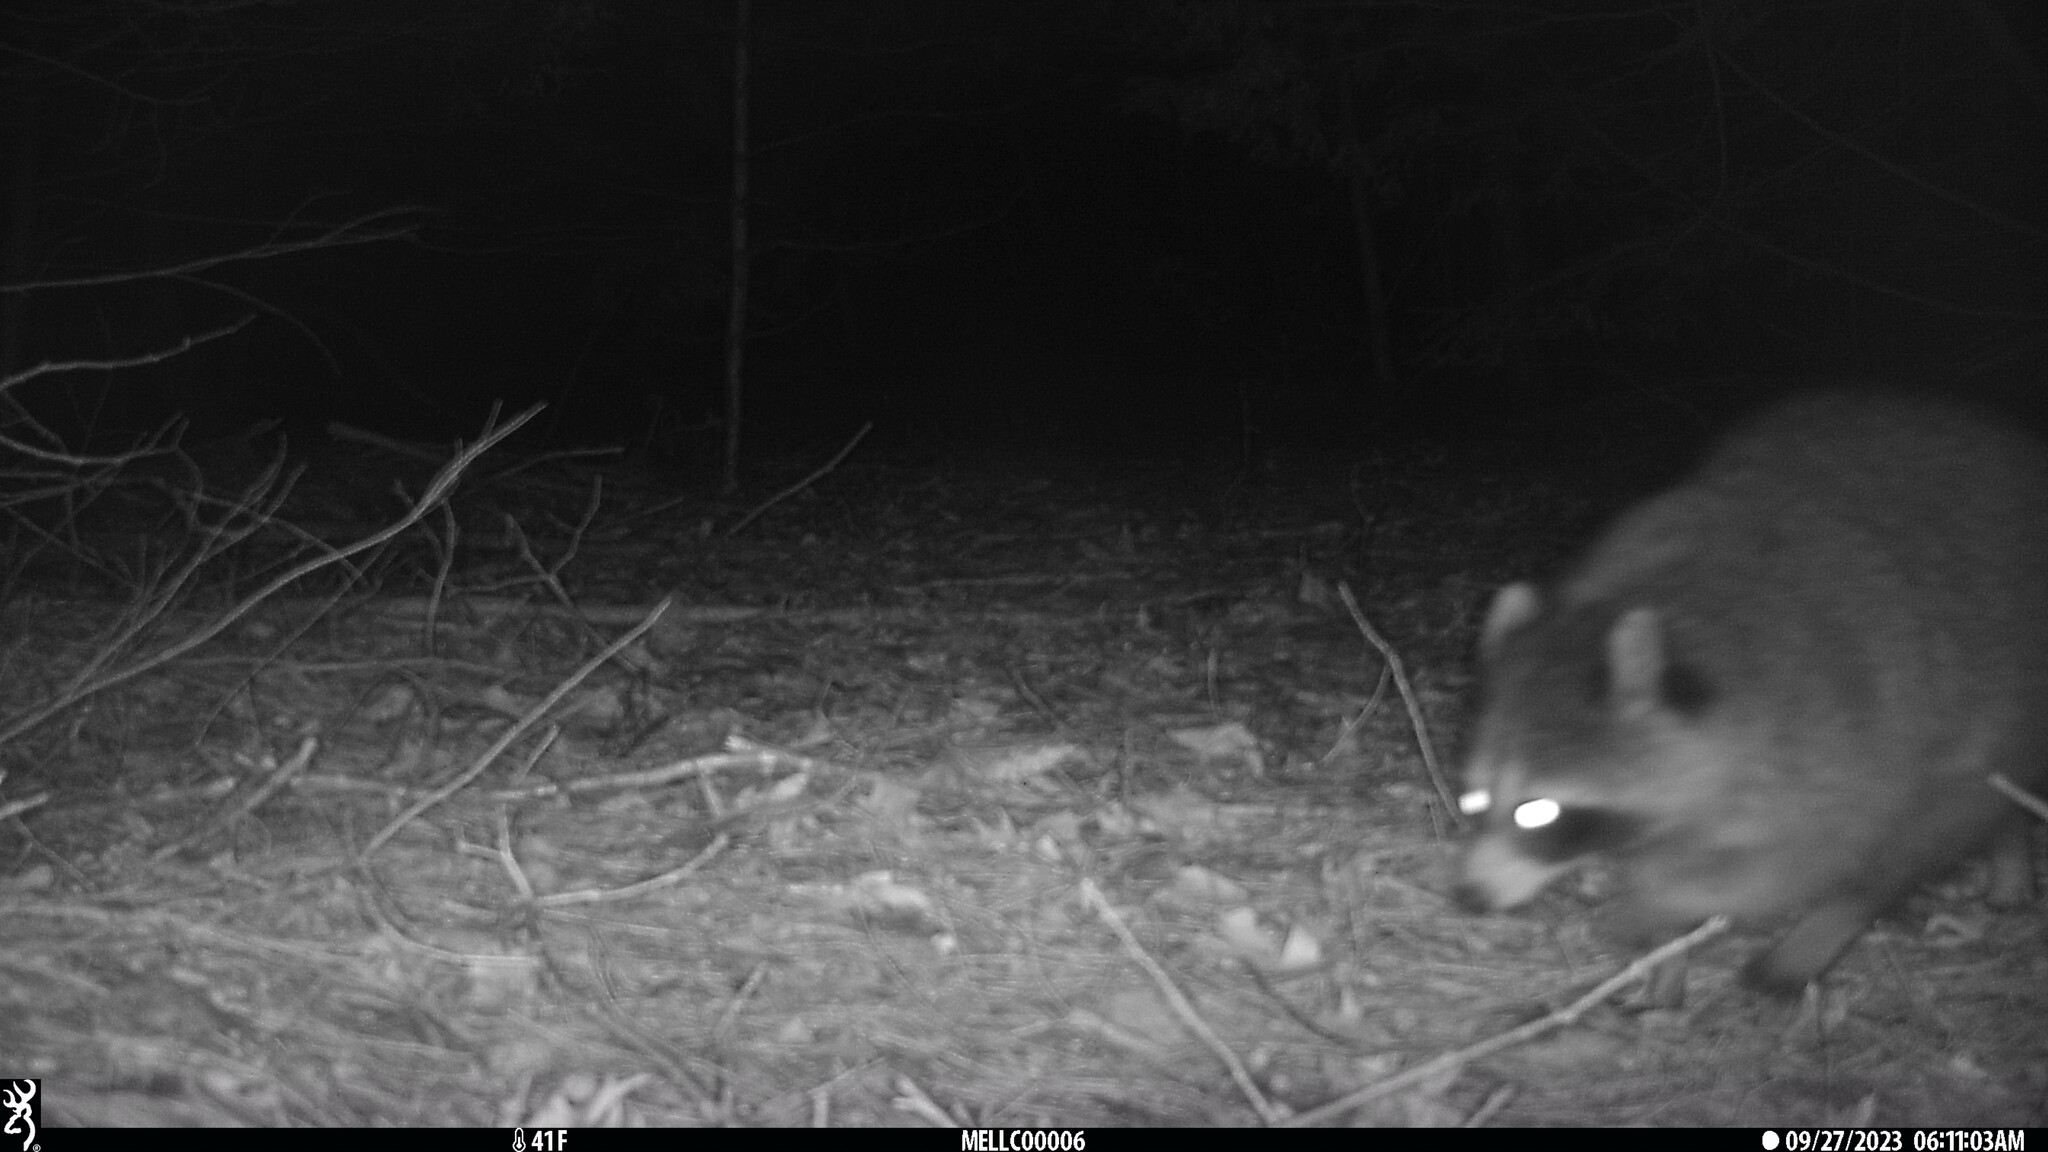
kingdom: Animalia
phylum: Chordata
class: Mammalia
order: Carnivora
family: Procyonidae
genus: Procyon
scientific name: Procyon lotor
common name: Raccoon
